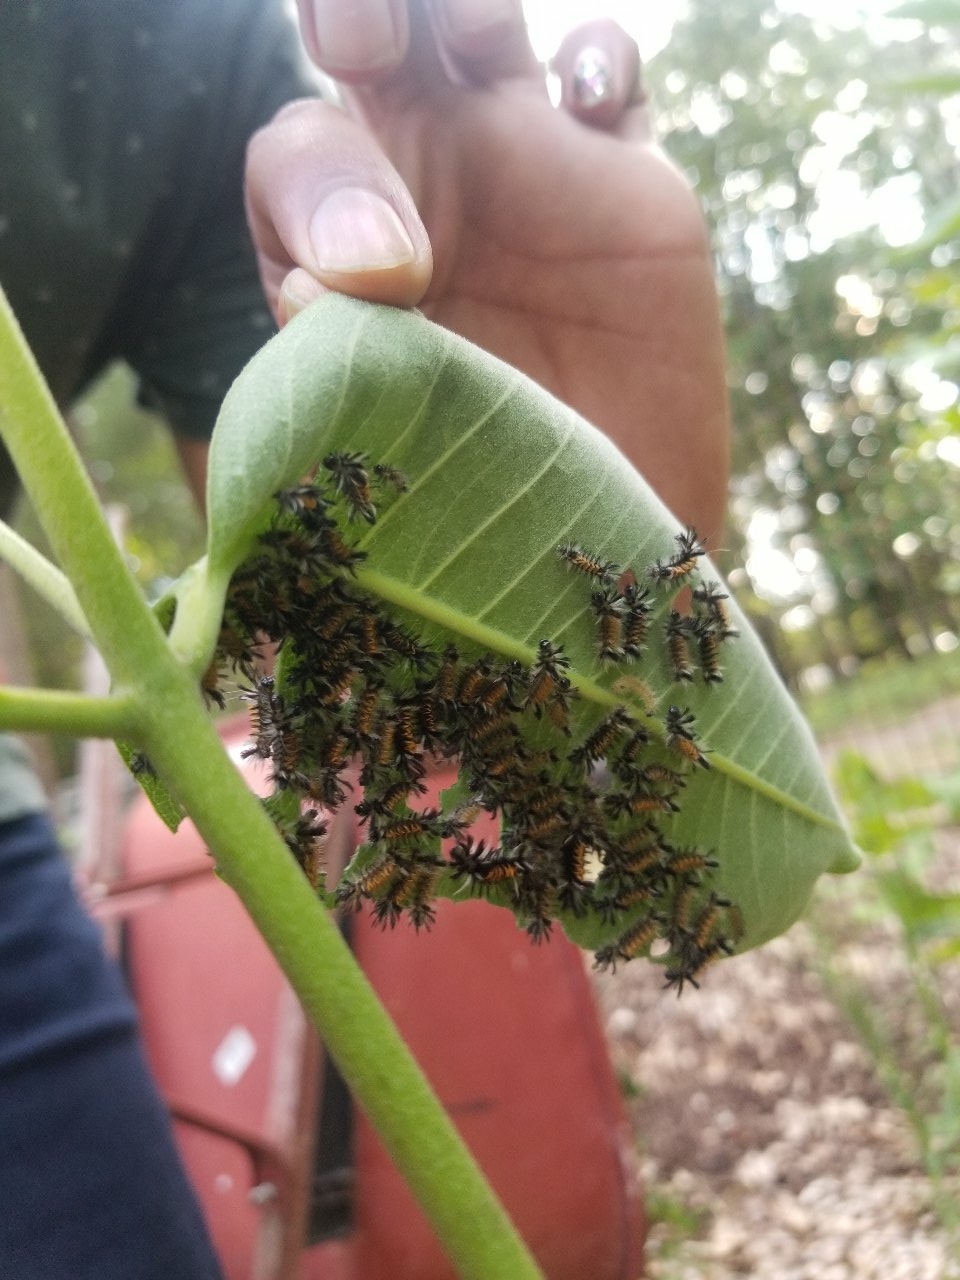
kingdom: Animalia
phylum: Arthropoda
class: Insecta
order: Lepidoptera
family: Erebidae
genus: Euchaetes
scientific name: Euchaetes egle
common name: Milkweed tussock moth
